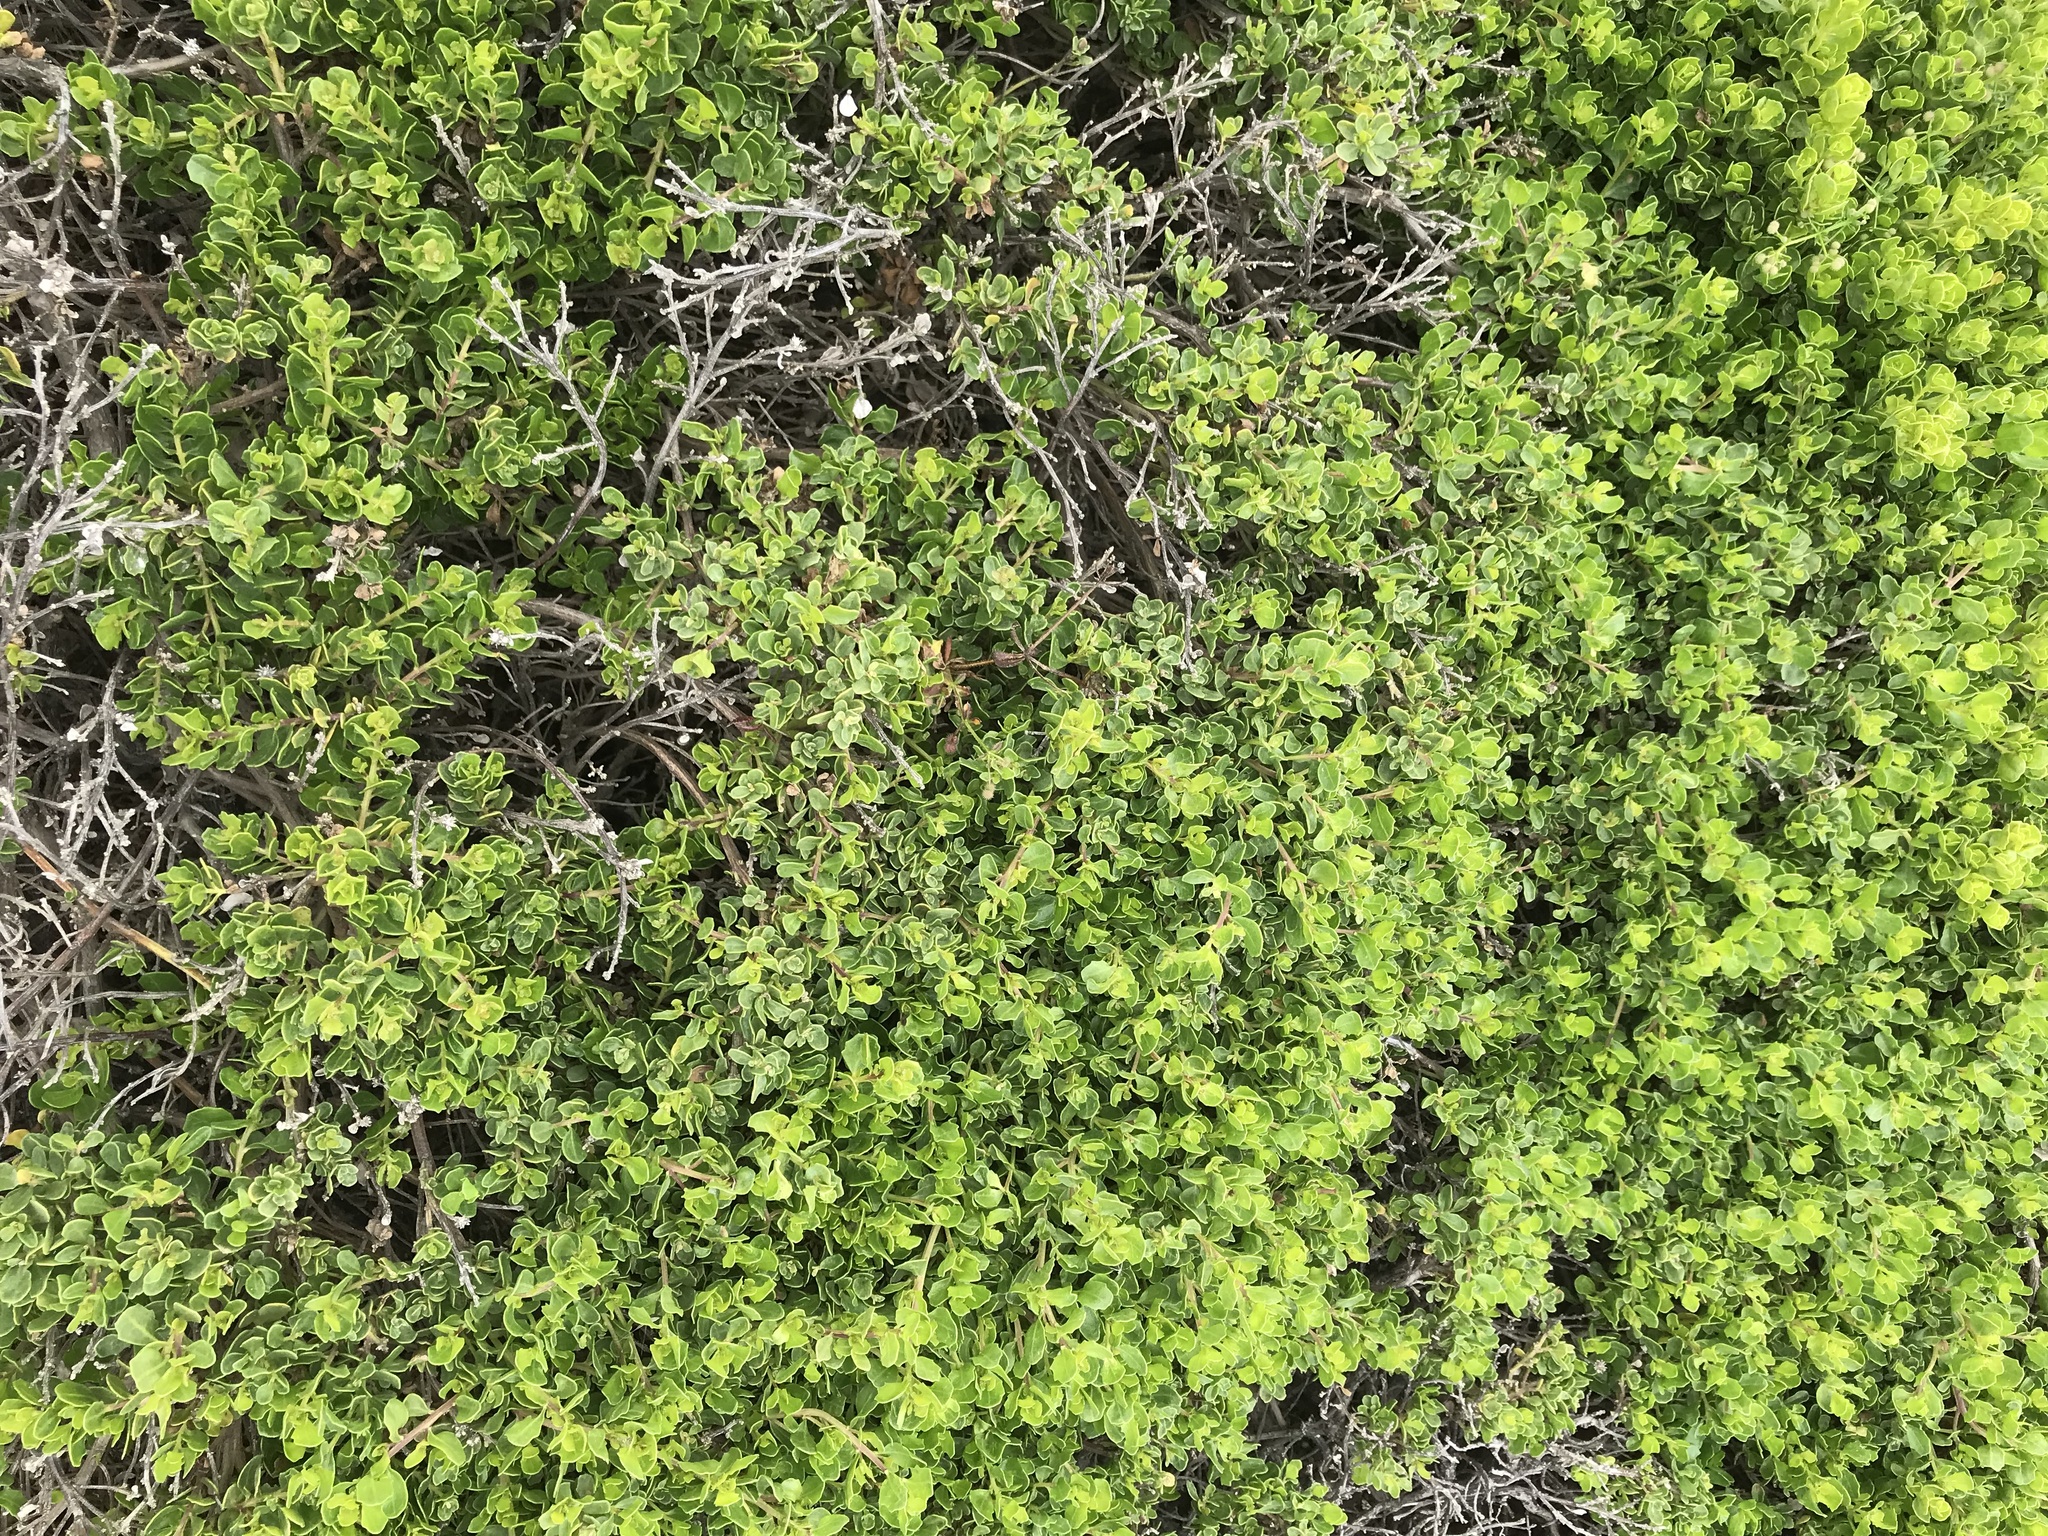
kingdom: Plantae
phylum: Tracheophyta
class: Magnoliopsida
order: Asterales
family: Asteraceae
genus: Baccharis
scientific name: Baccharis pilularis
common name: Coyotebrush
